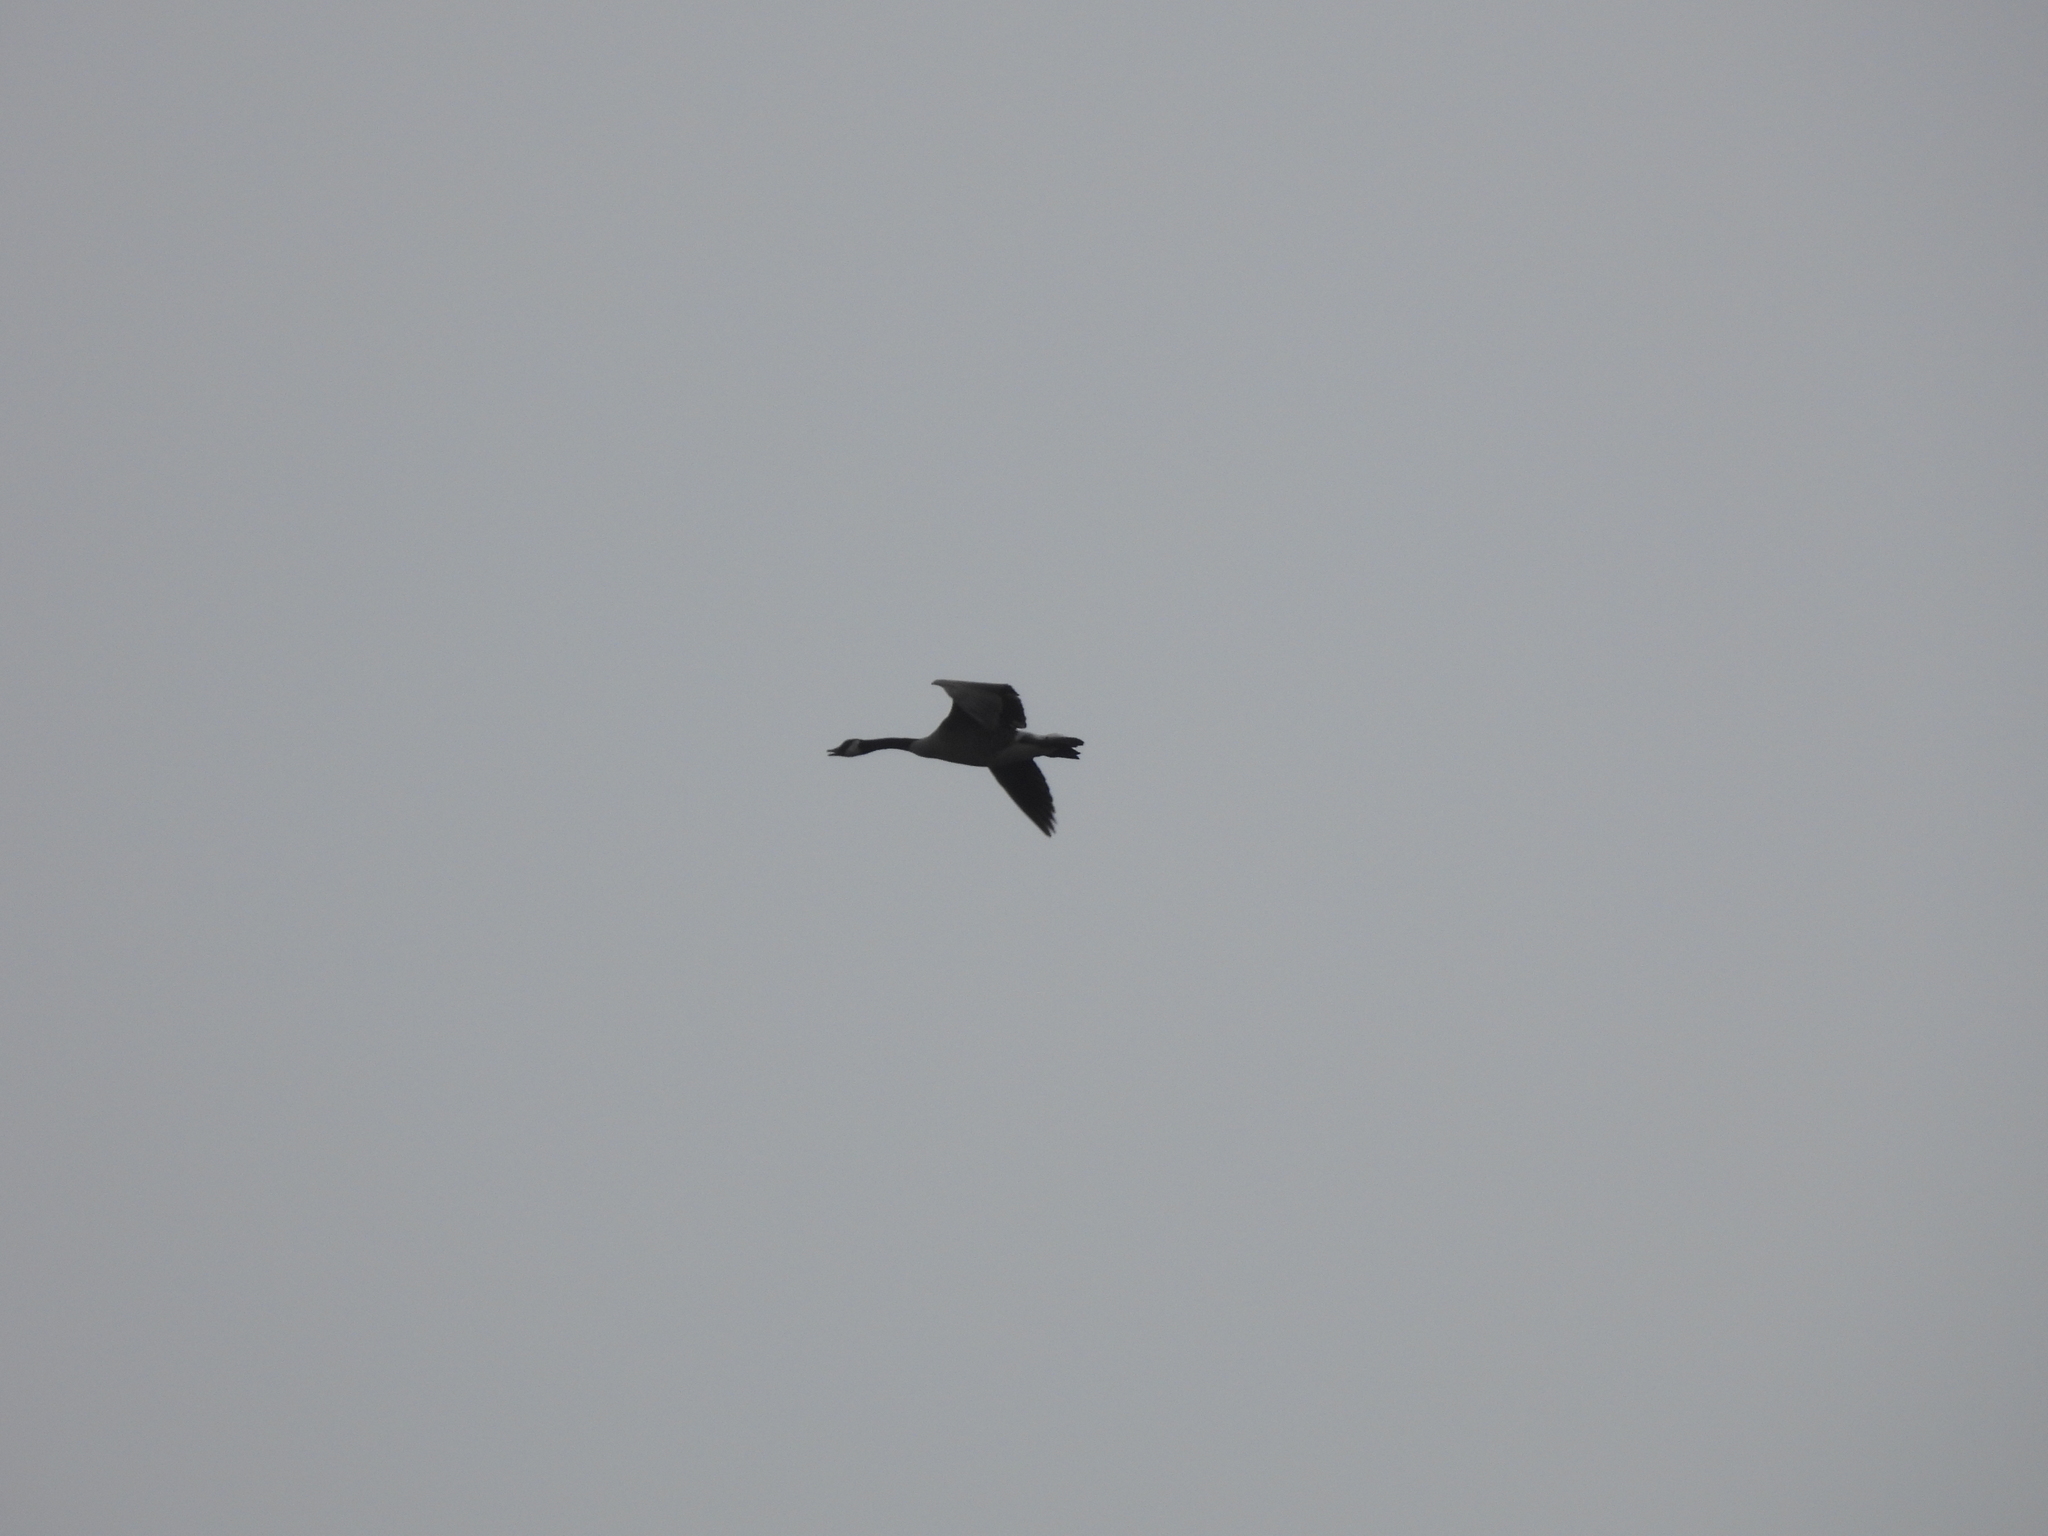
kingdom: Animalia
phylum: Chordata
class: Aves
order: Anseriformes
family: Anatidae
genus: Branta
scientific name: Branta canadensis
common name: Canada goose
